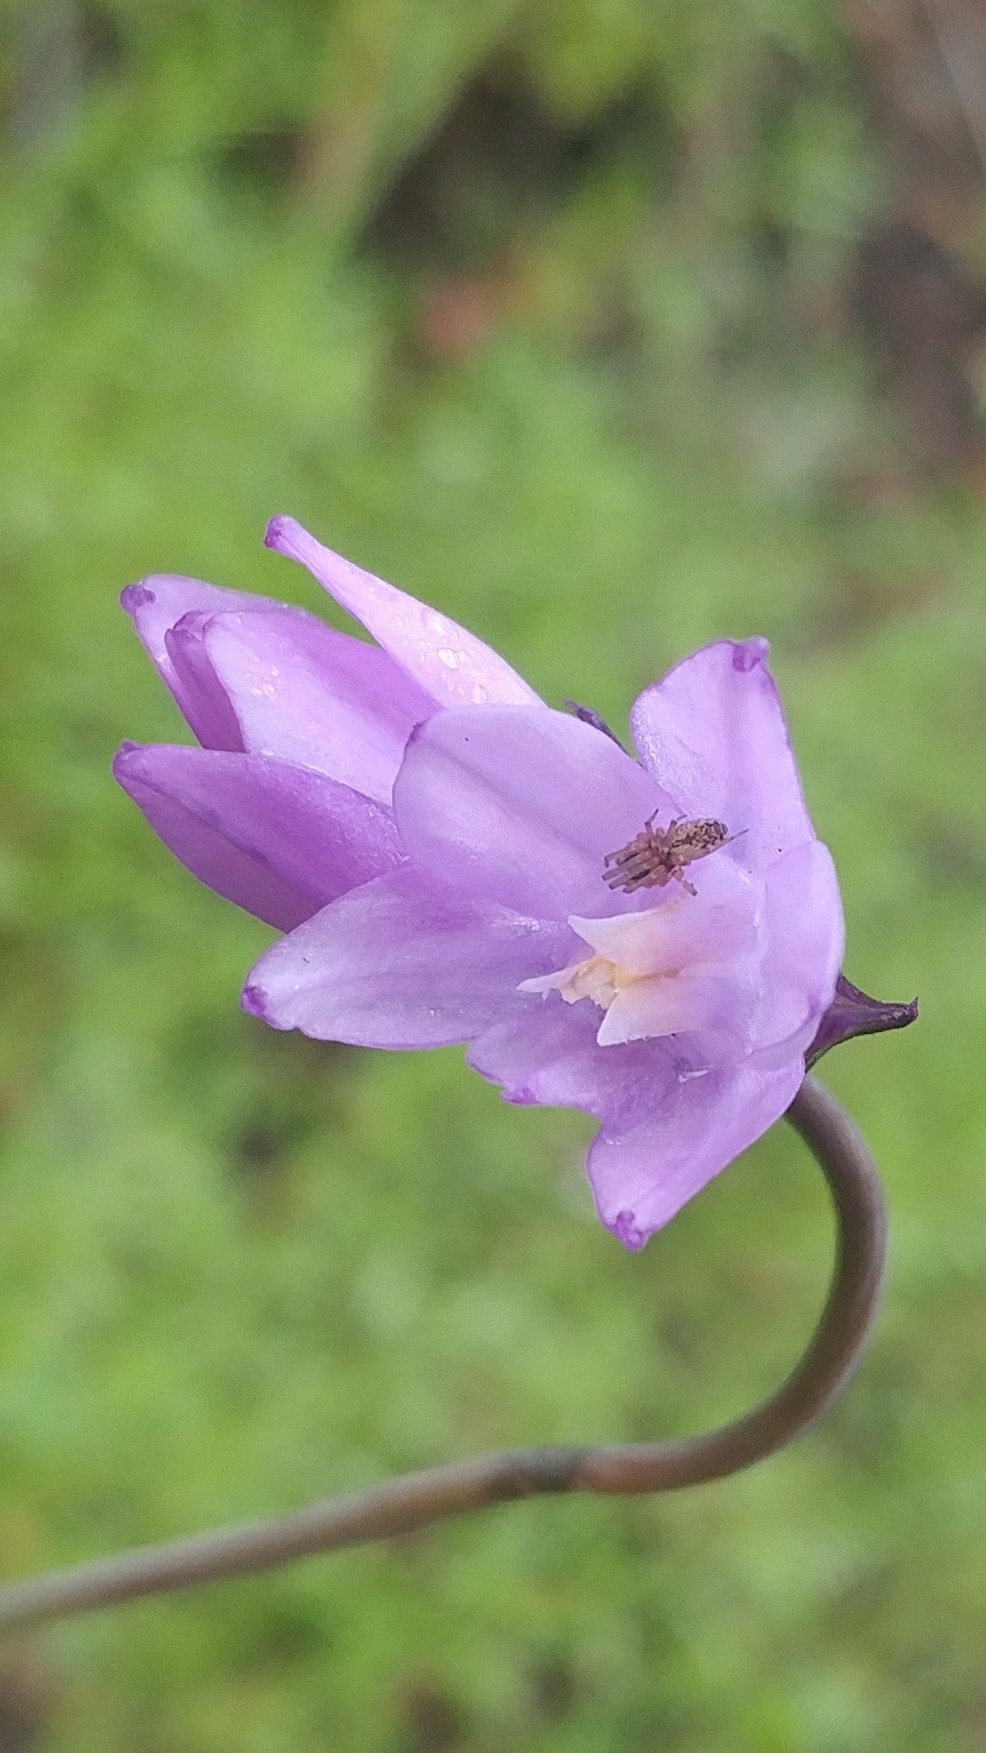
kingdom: Plantae
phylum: Tracheophyta
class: Liliopsida
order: Asparagales
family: Asparagaceae
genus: Dipterostemon
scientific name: Dipterostemon capitatus
